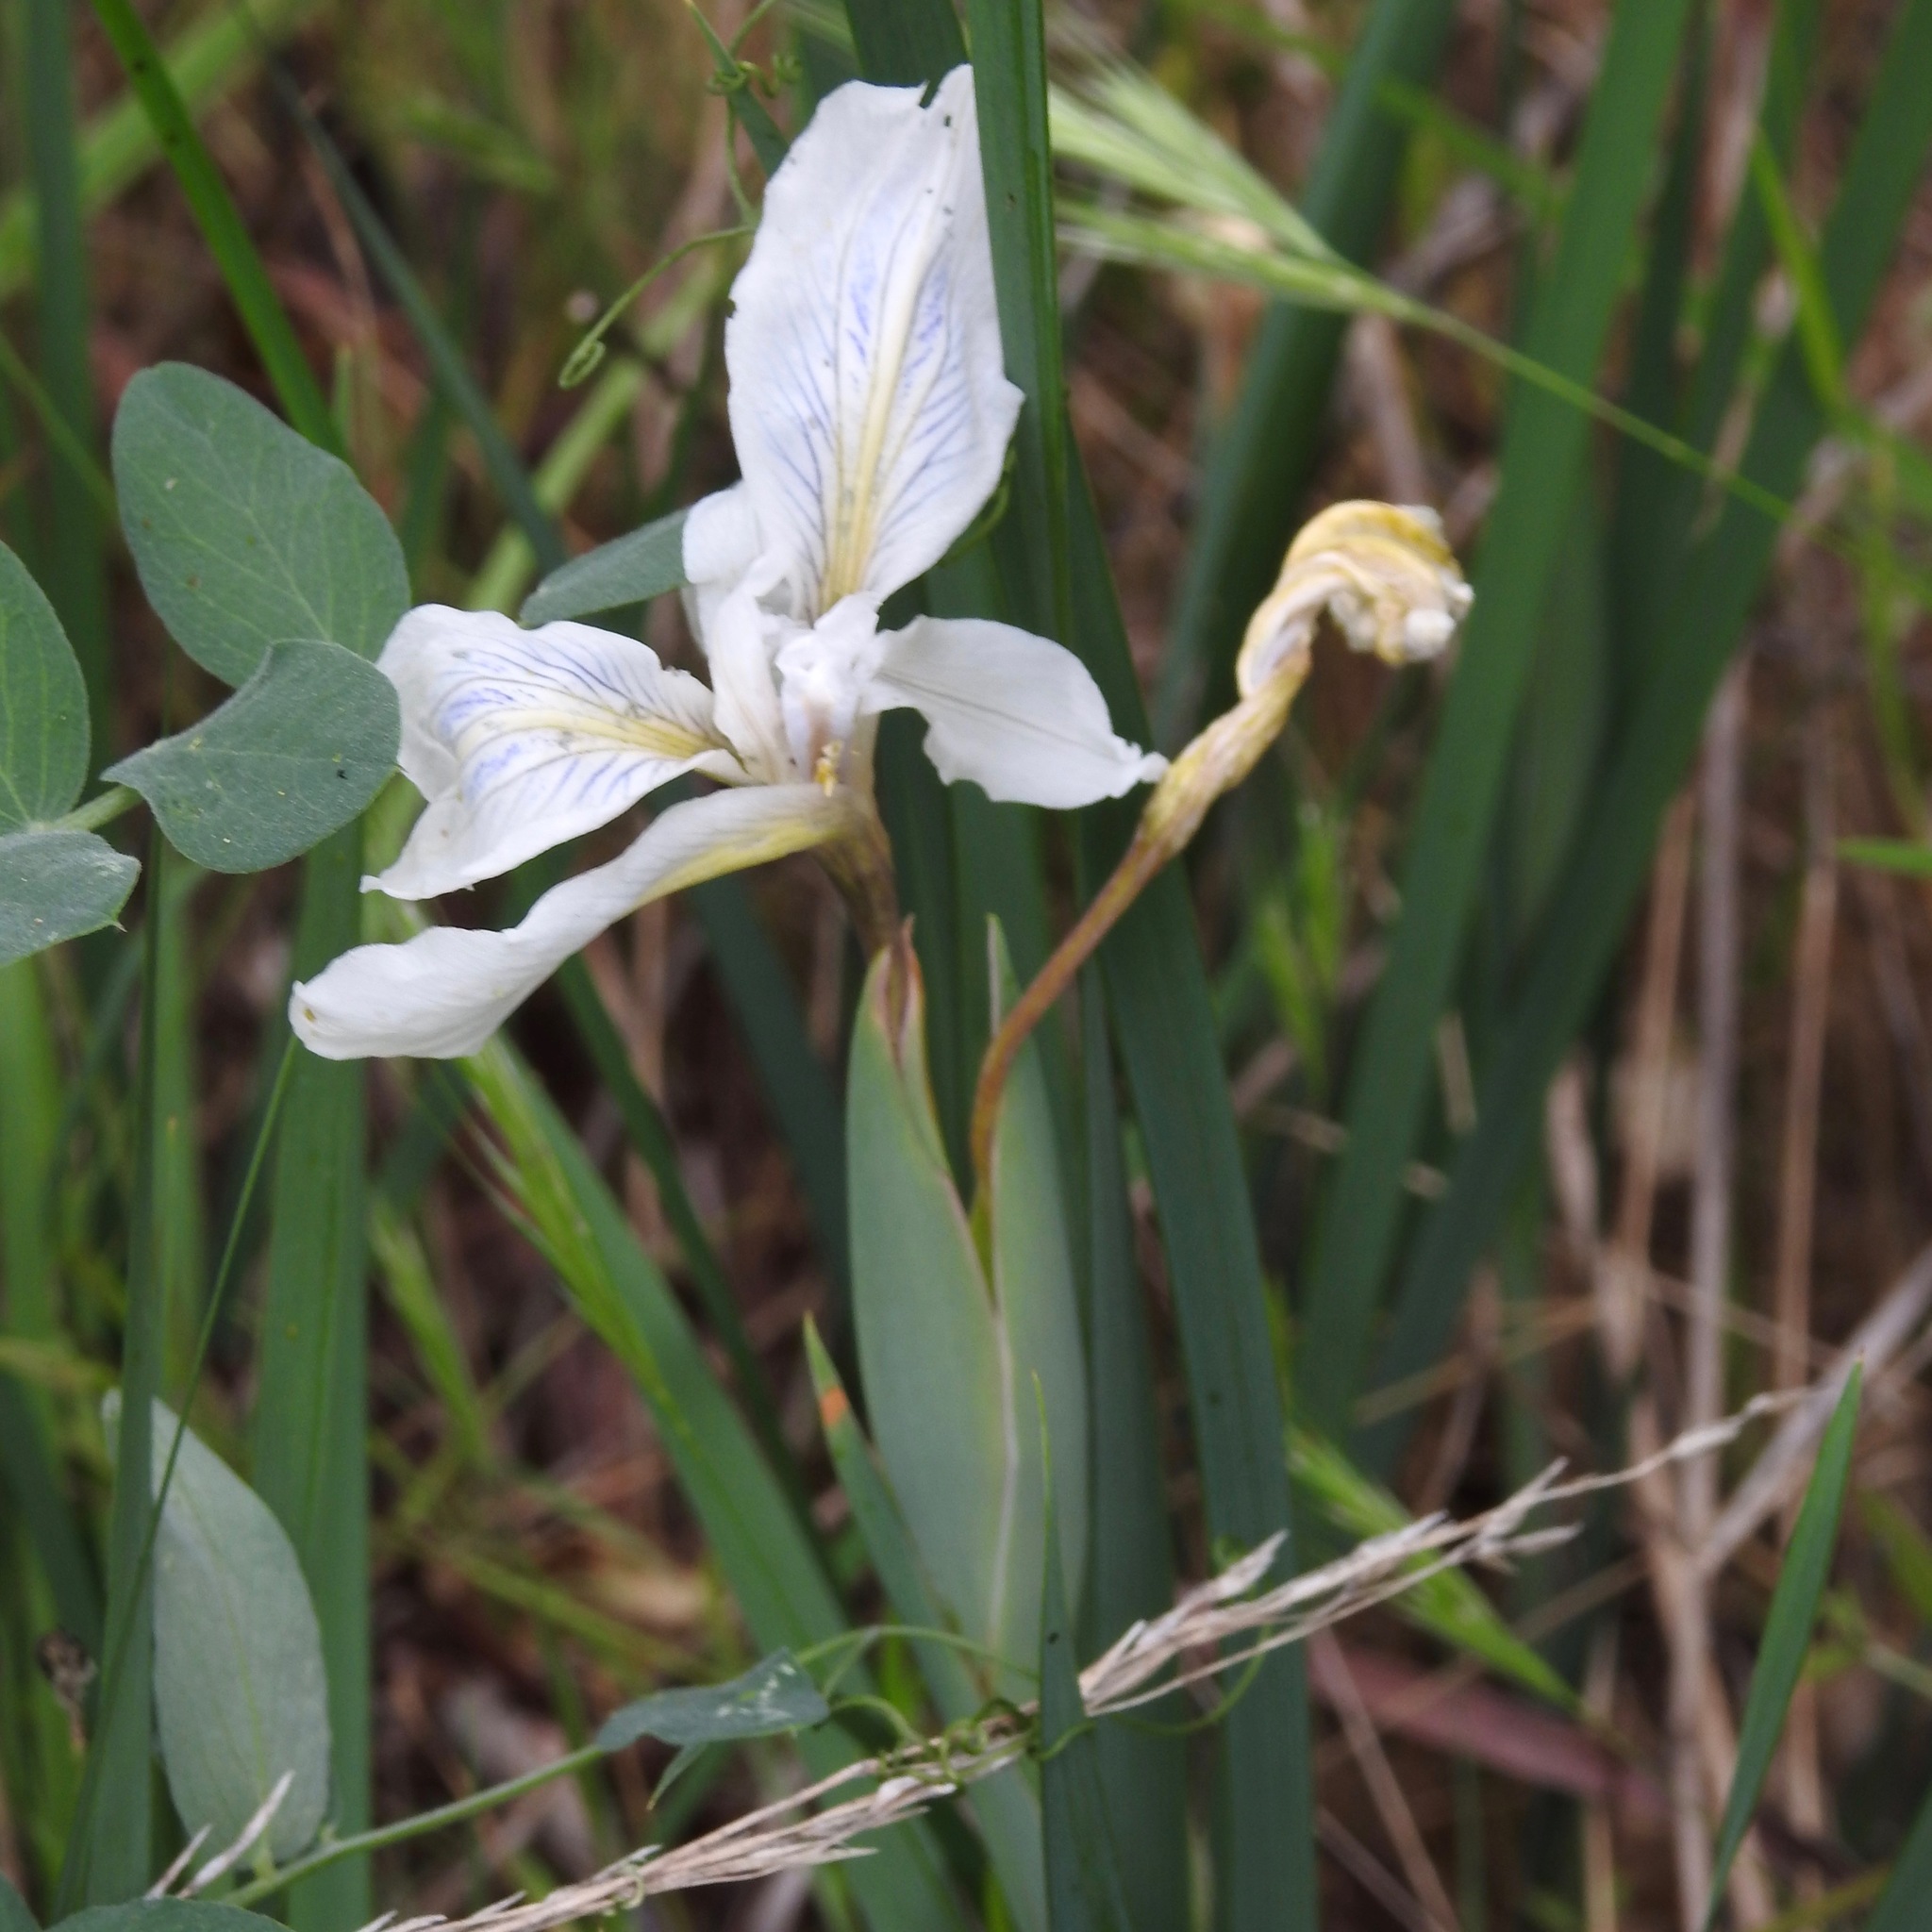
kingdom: Plantae
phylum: Tracheophyta
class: Liliopsida
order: Asparagales
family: Iridaceae
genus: Iris
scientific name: Iris fernaldii
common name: Fernald's iris
